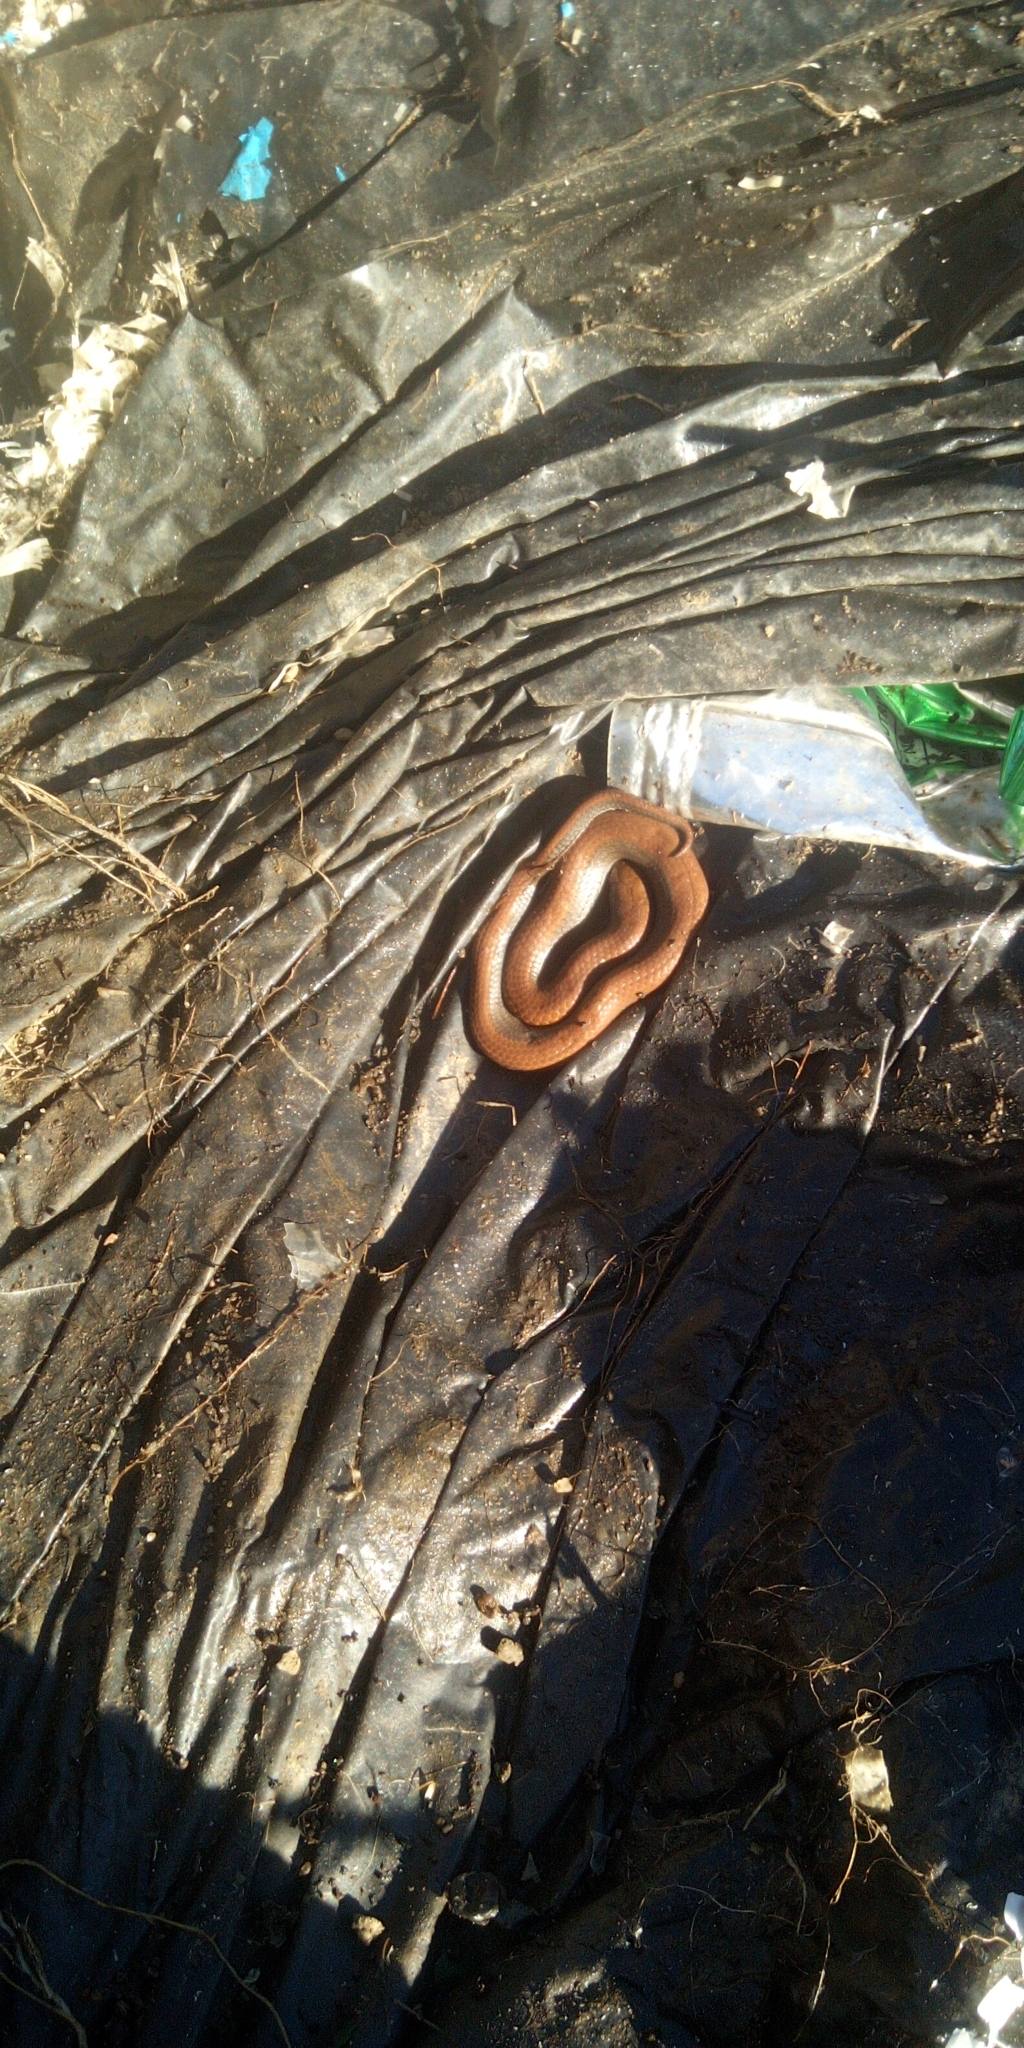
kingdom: Animalia
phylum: Chordata
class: Squamata
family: Pseudoxyrhophiidae
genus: Duberria
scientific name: Duberria lutrix
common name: Common slug eater
